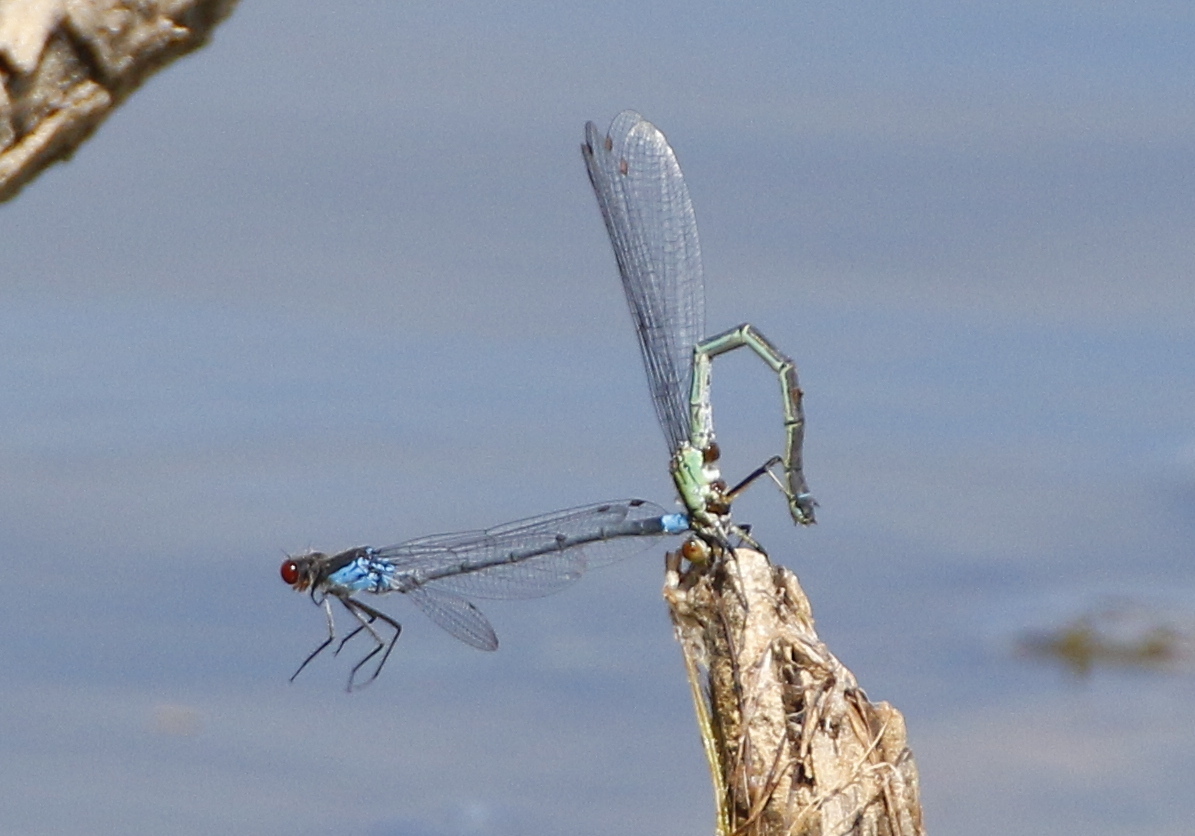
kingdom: Animalia
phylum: Arthropoda
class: Insecta
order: Odonata
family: Coenagrionidae
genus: Erythromma
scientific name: Erythromma najas
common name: Red-eyed damselfly
